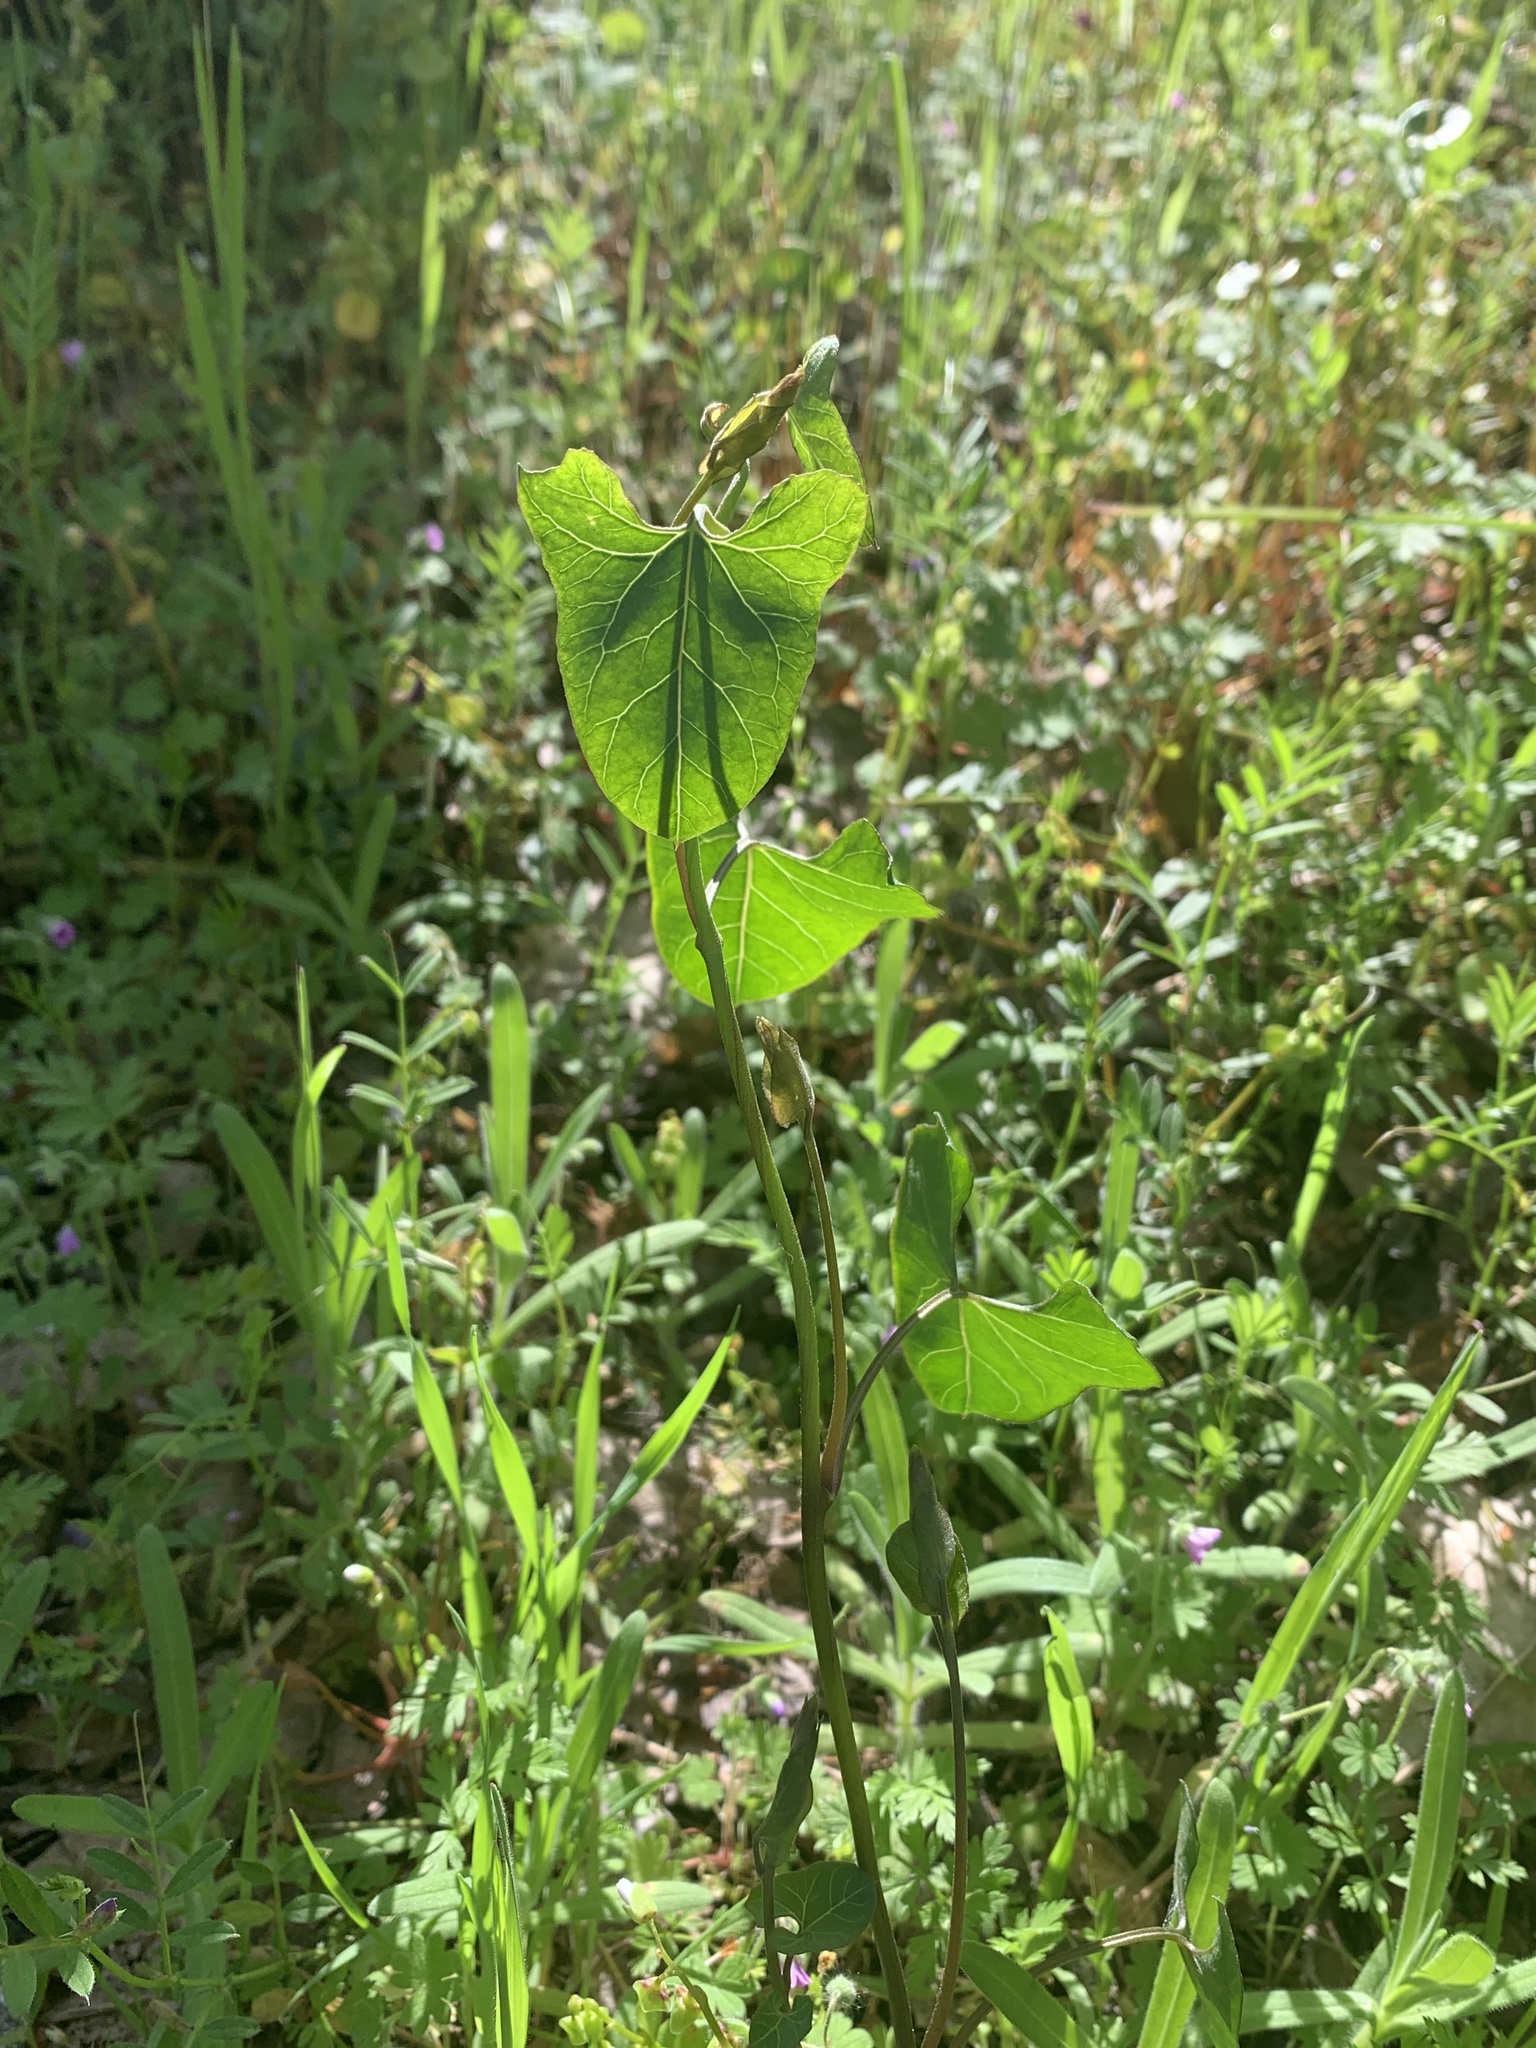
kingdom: Plantae
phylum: Tracheophyta
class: Magnoliopsida
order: Piperales
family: Aristolochiaceae
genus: Isotrema
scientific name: Isotrema californicum
